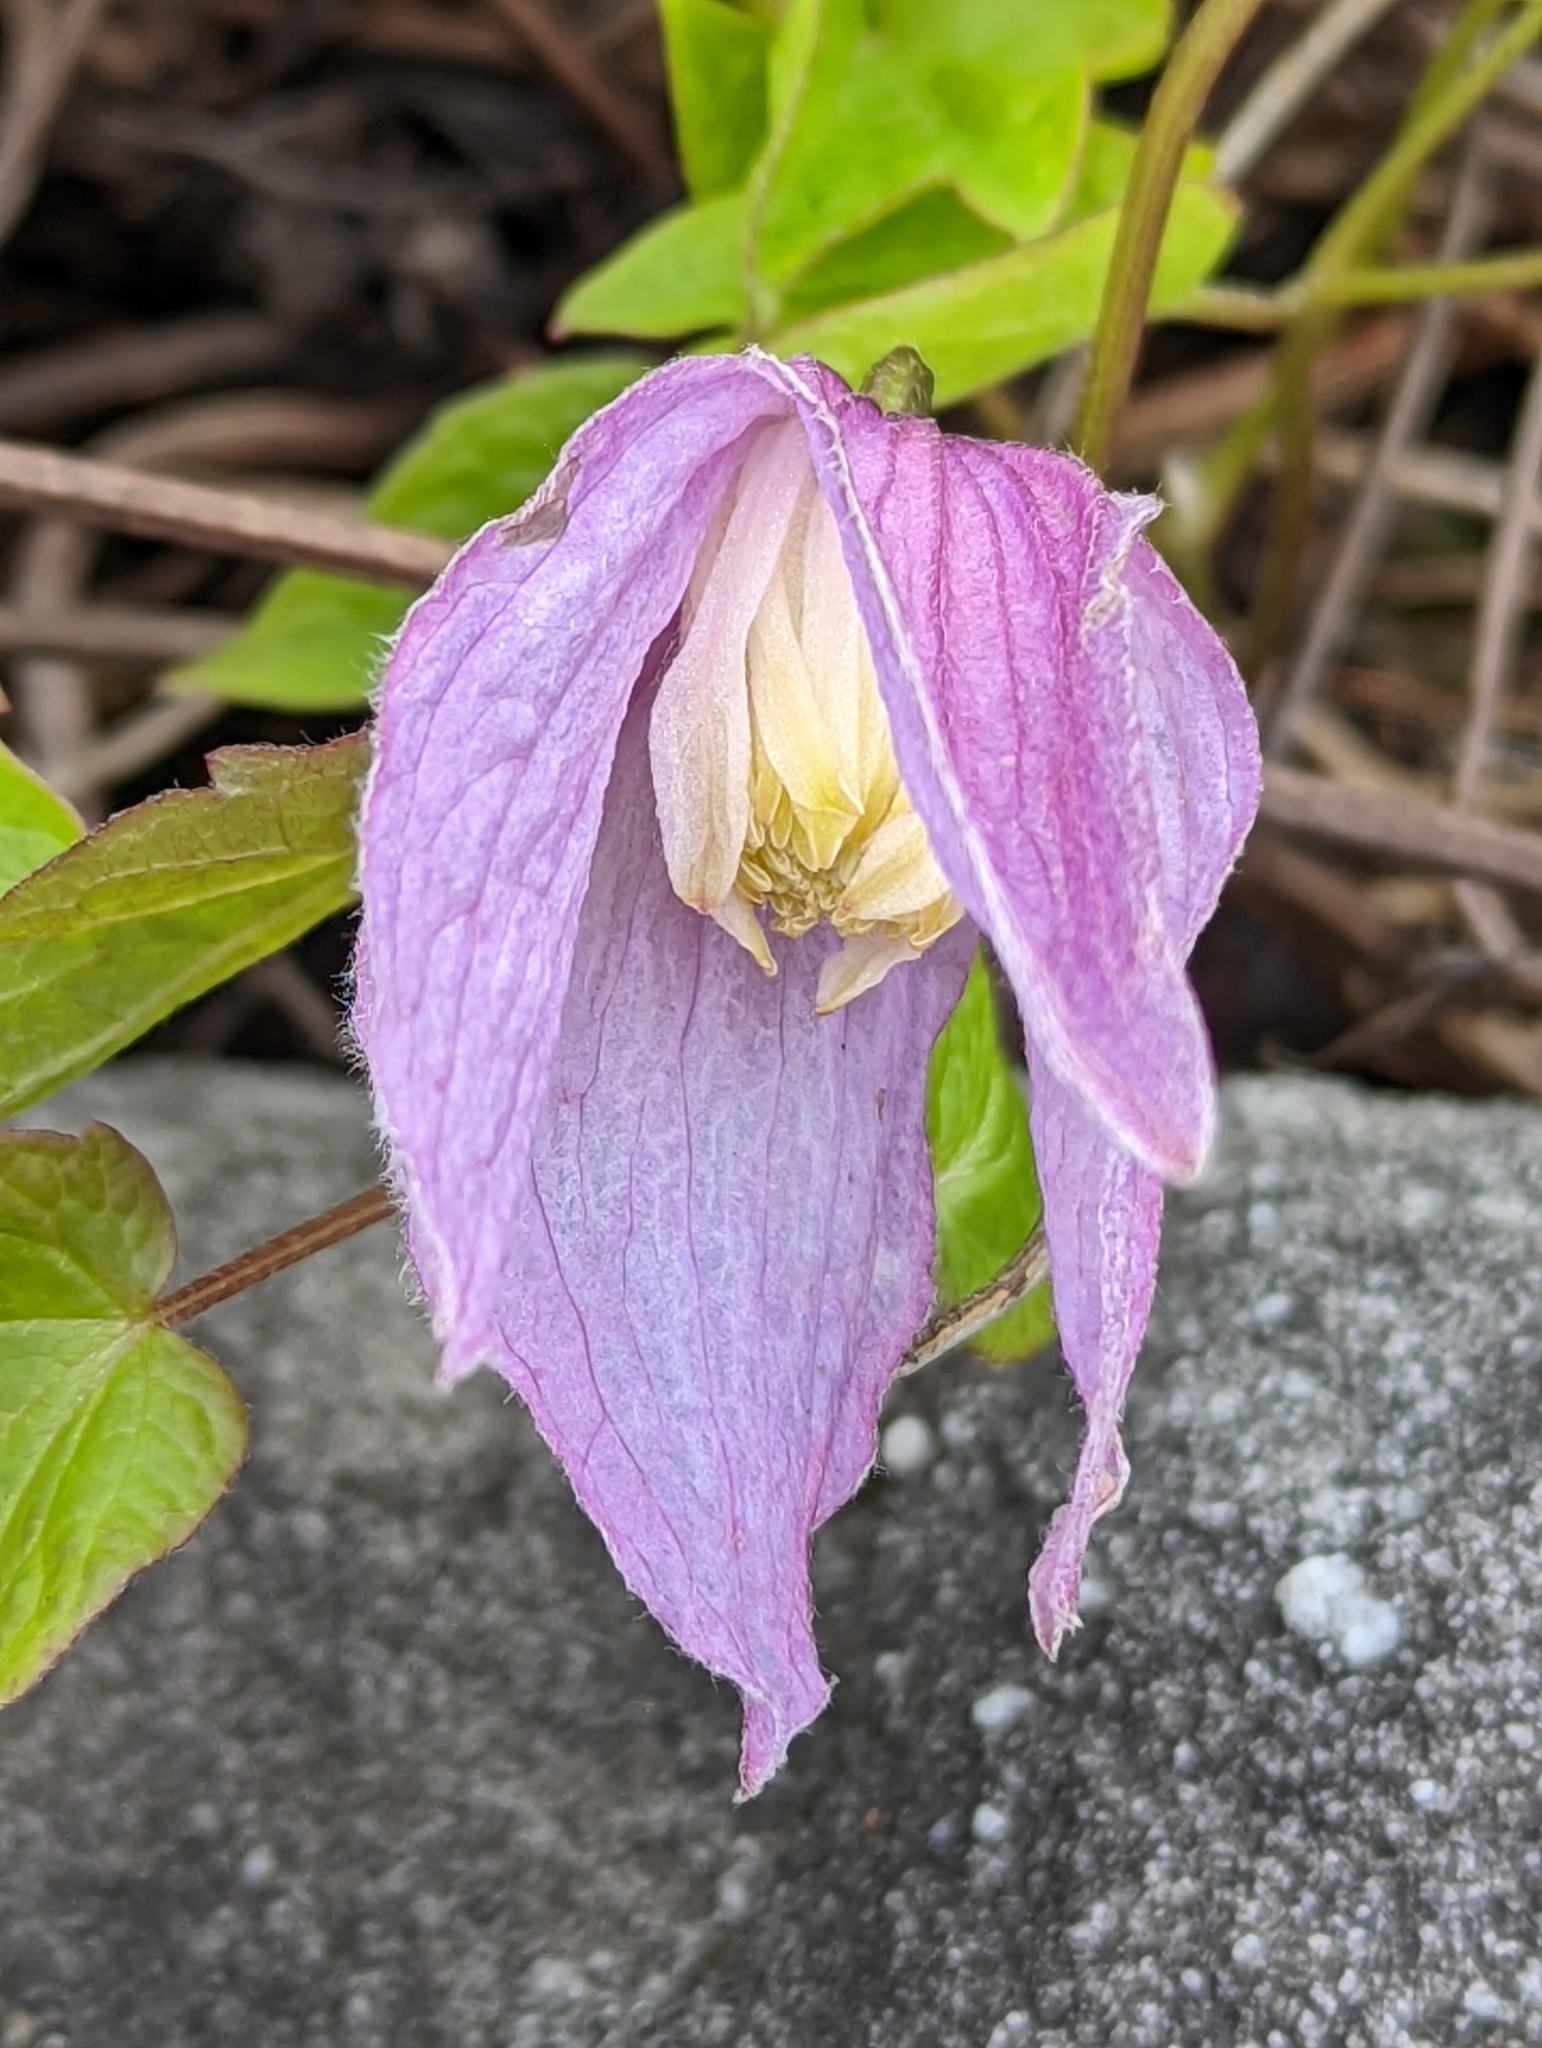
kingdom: Plantae
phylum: Tracheophyta
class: Magnoliopsida
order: Ranunculales
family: Ranunculaceae
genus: Clematis
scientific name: Clematis occidentalis
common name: Purple clematis
